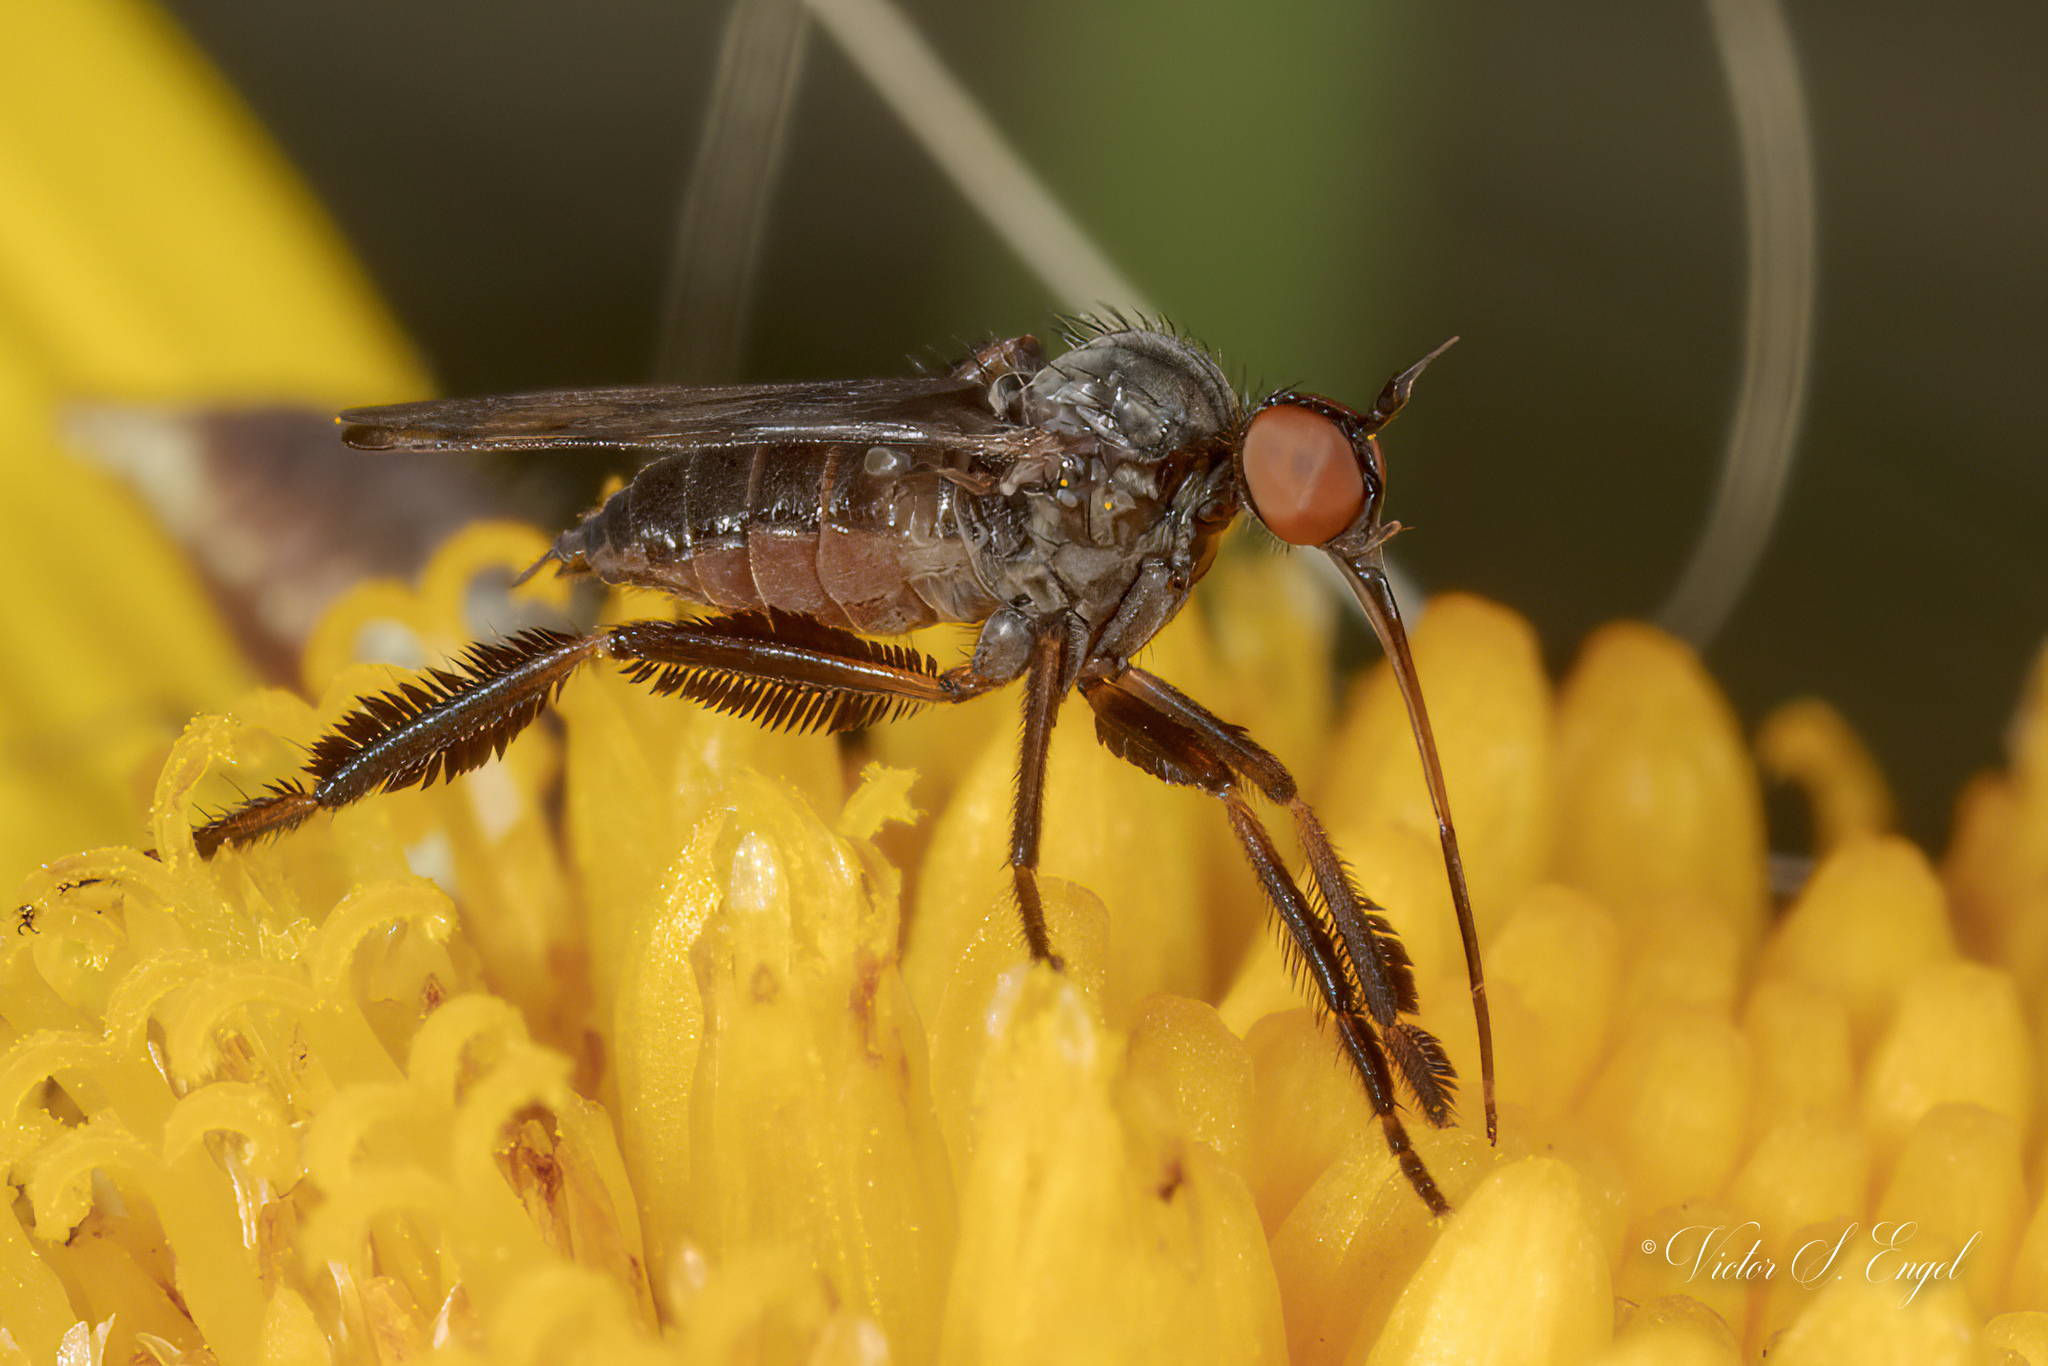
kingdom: Animalia
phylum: Arthropoda
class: Insecta
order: Diptera
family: Empididae
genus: Empis
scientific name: Empis clausa
